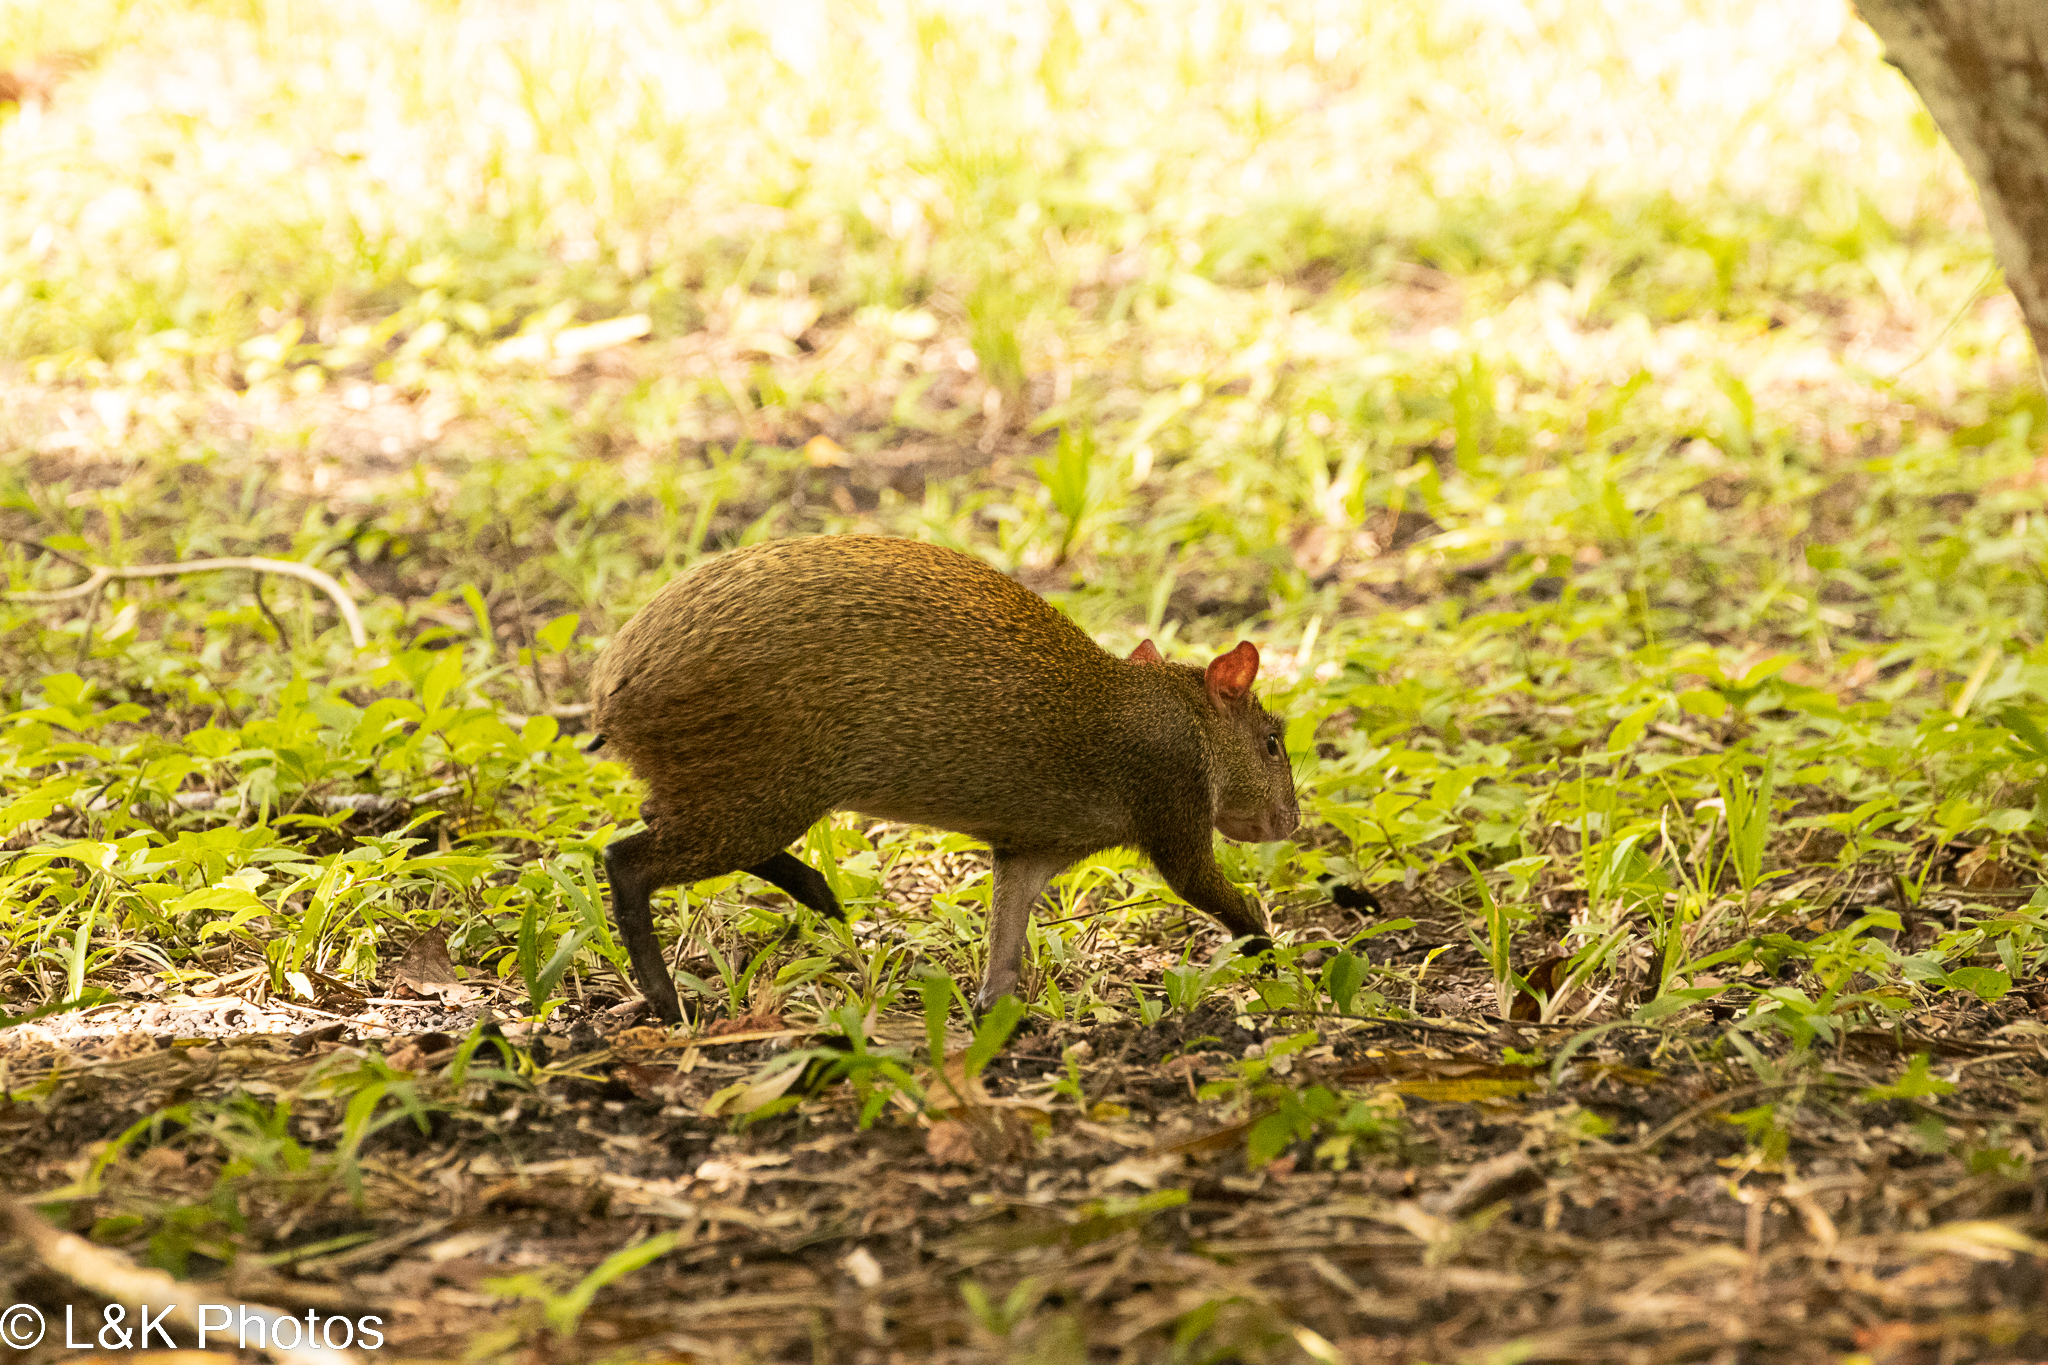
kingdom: Animalia
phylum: Chordata
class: Mammalia
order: Rodentia
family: Dasyproctidae
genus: Dasyprocta
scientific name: Dasyprocta punctata
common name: Central american agouti
